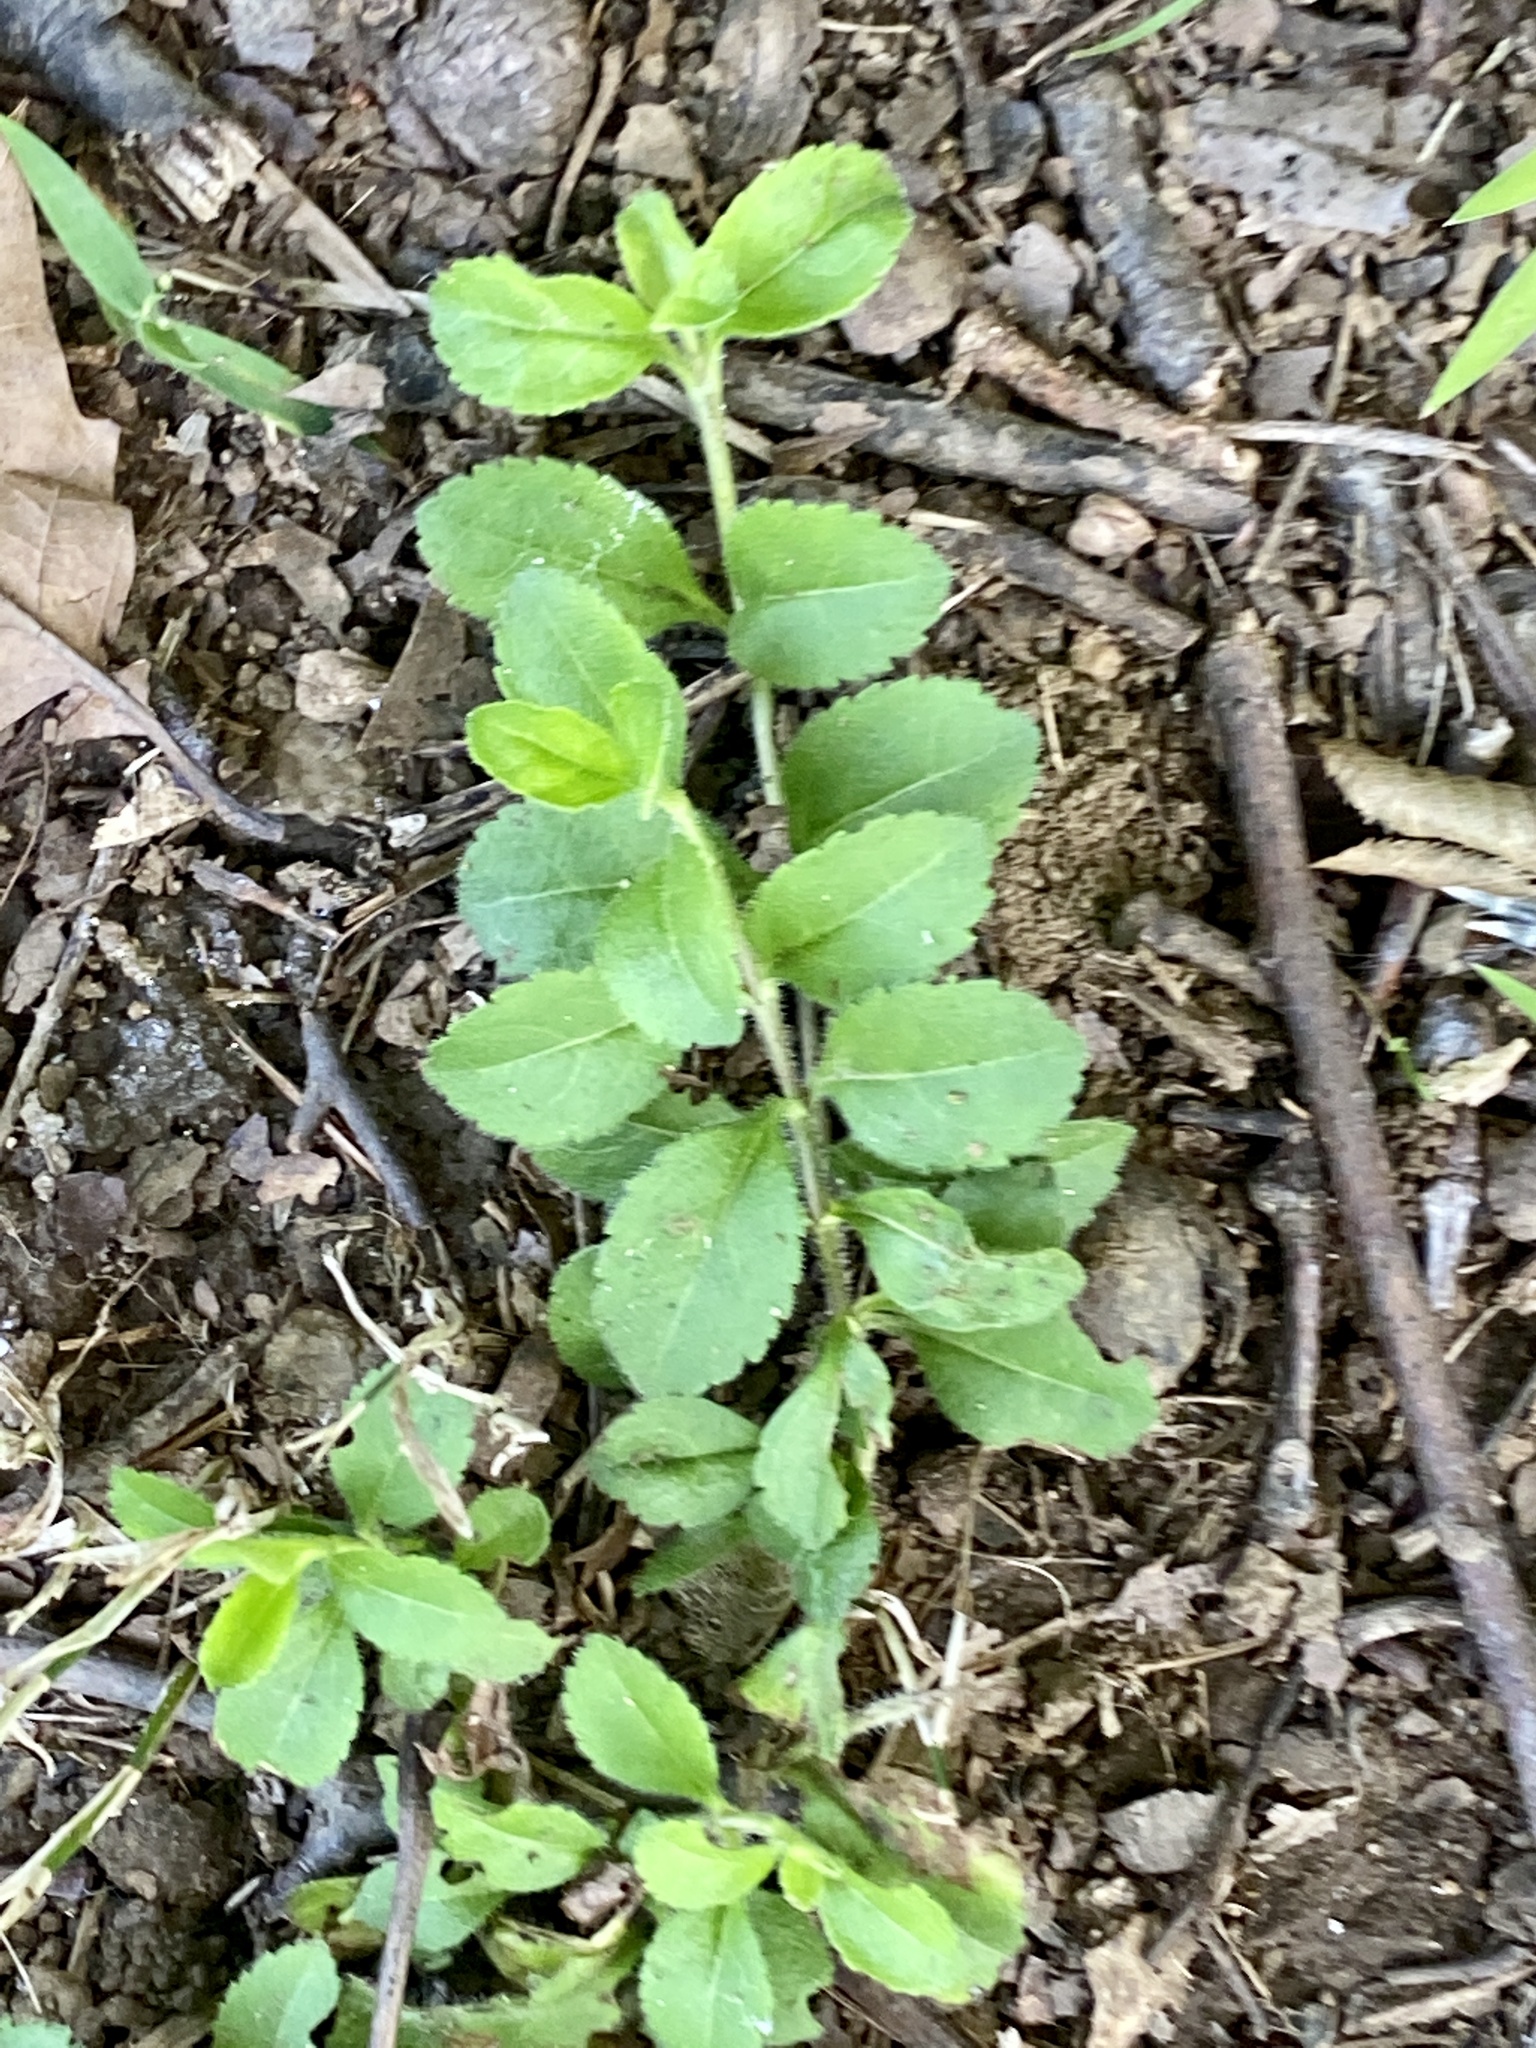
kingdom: Plantae
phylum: Tracheophyta
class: Magnoliopsida
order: Lamiales
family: Plantaginaceae
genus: Veronica
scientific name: Veronica officinalis
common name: Common speedwell
